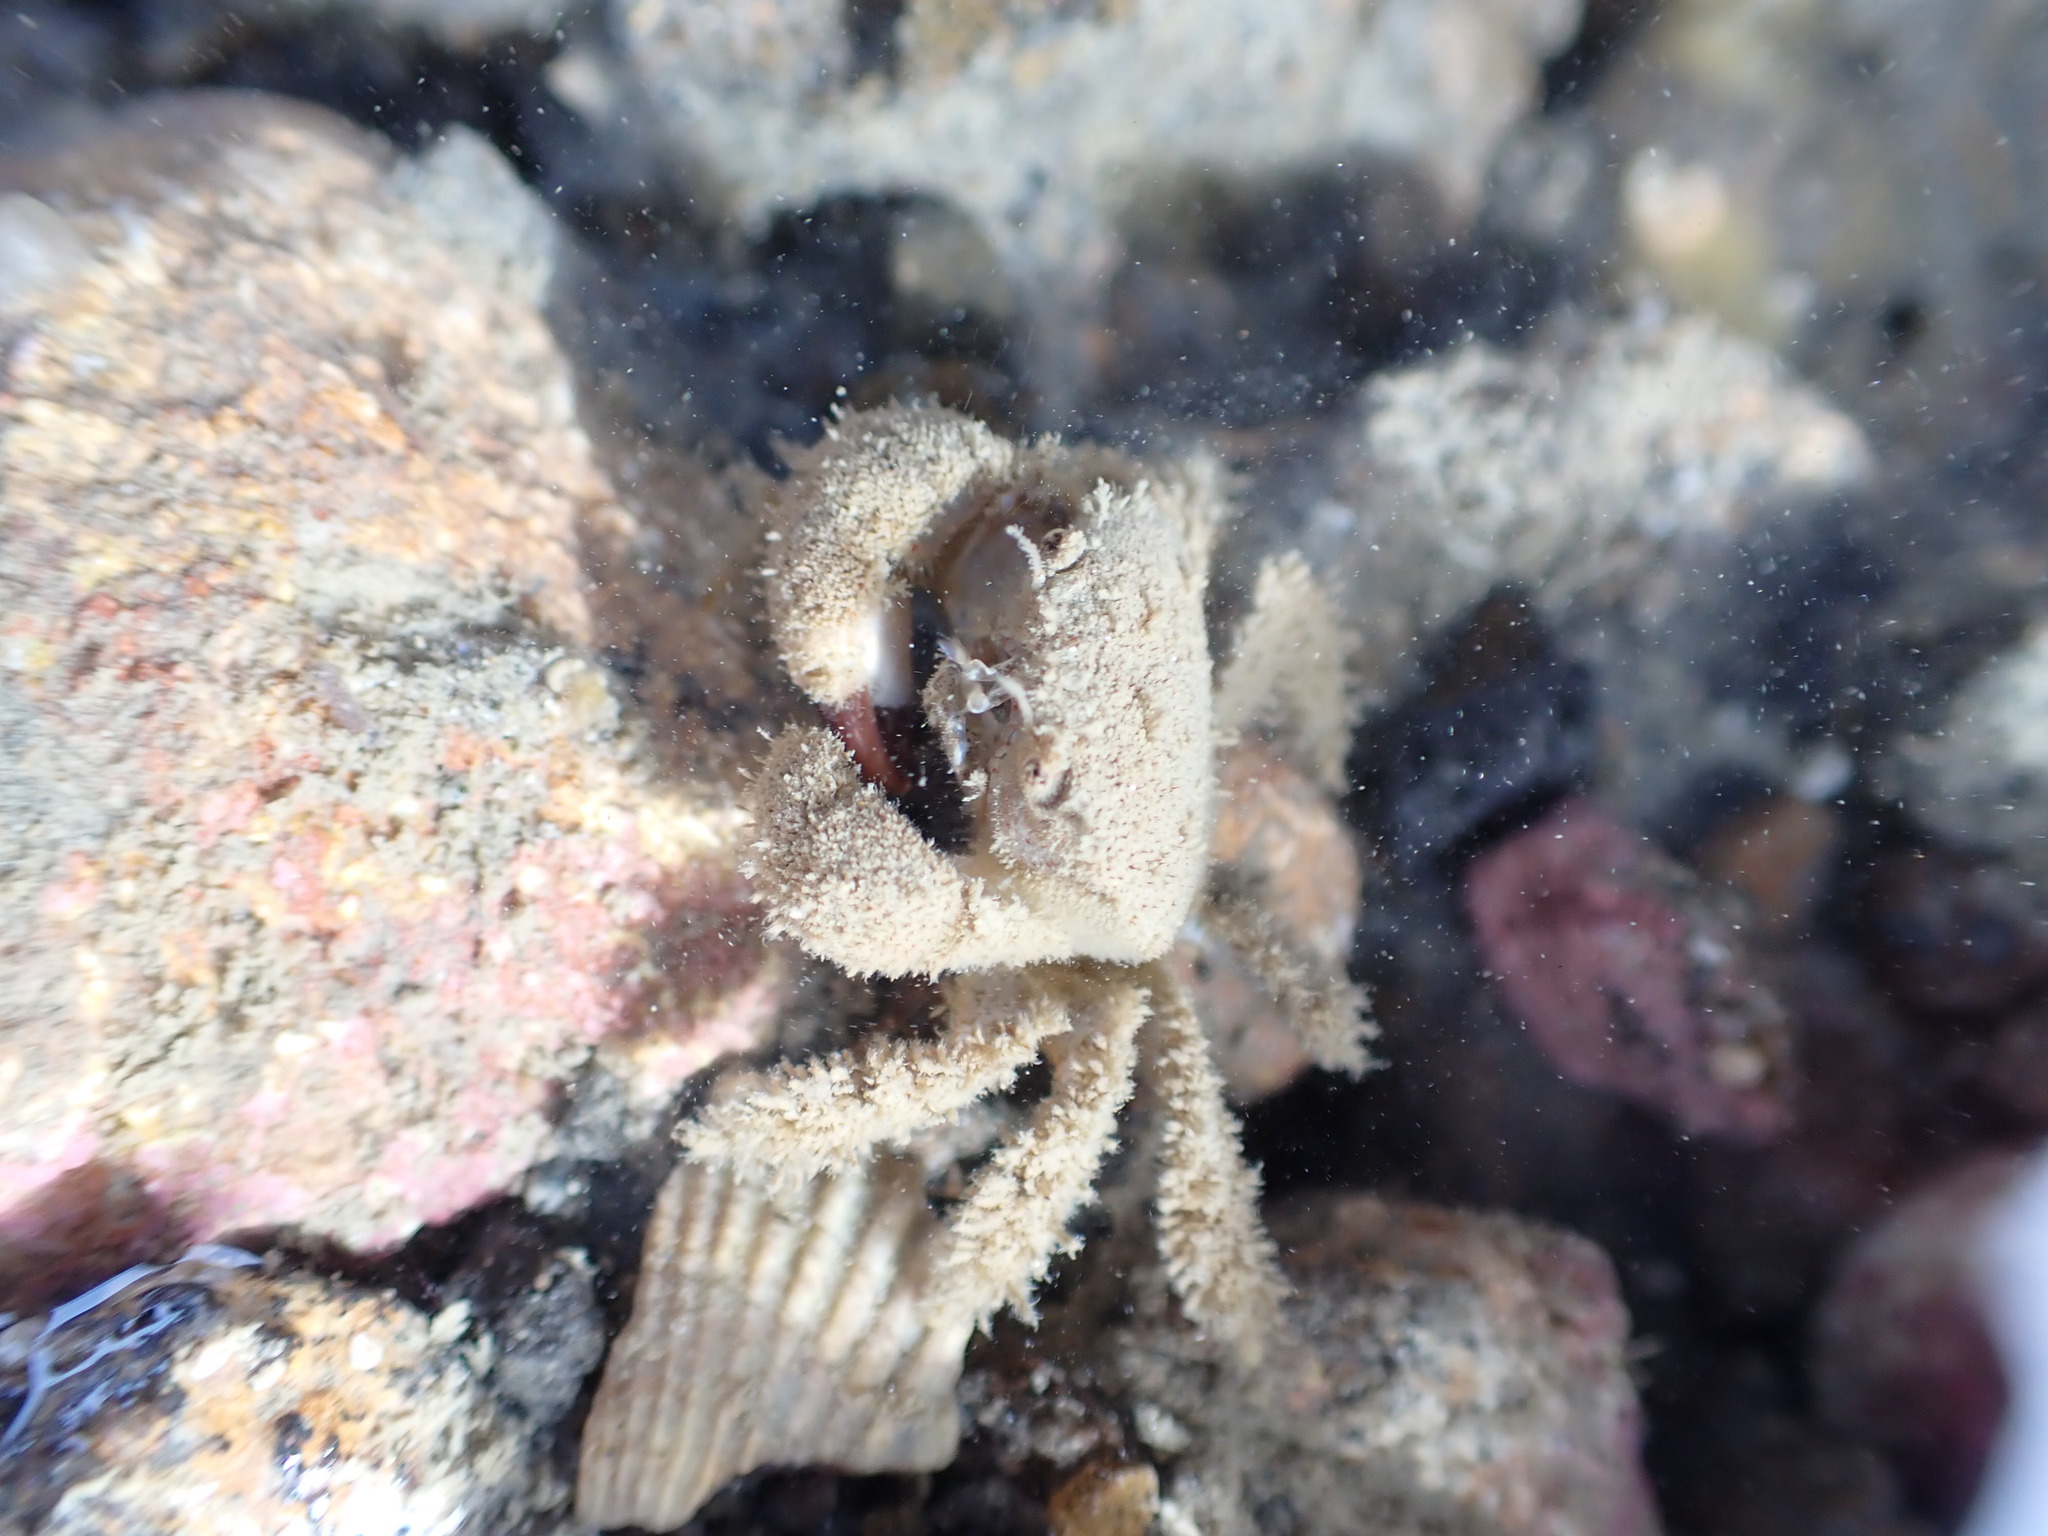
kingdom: Animalia
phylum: Arthropoda
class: Malacostraca
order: Decapoda
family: Pilumnidae
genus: Pilumnus
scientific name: Pilumnus lumpinus
